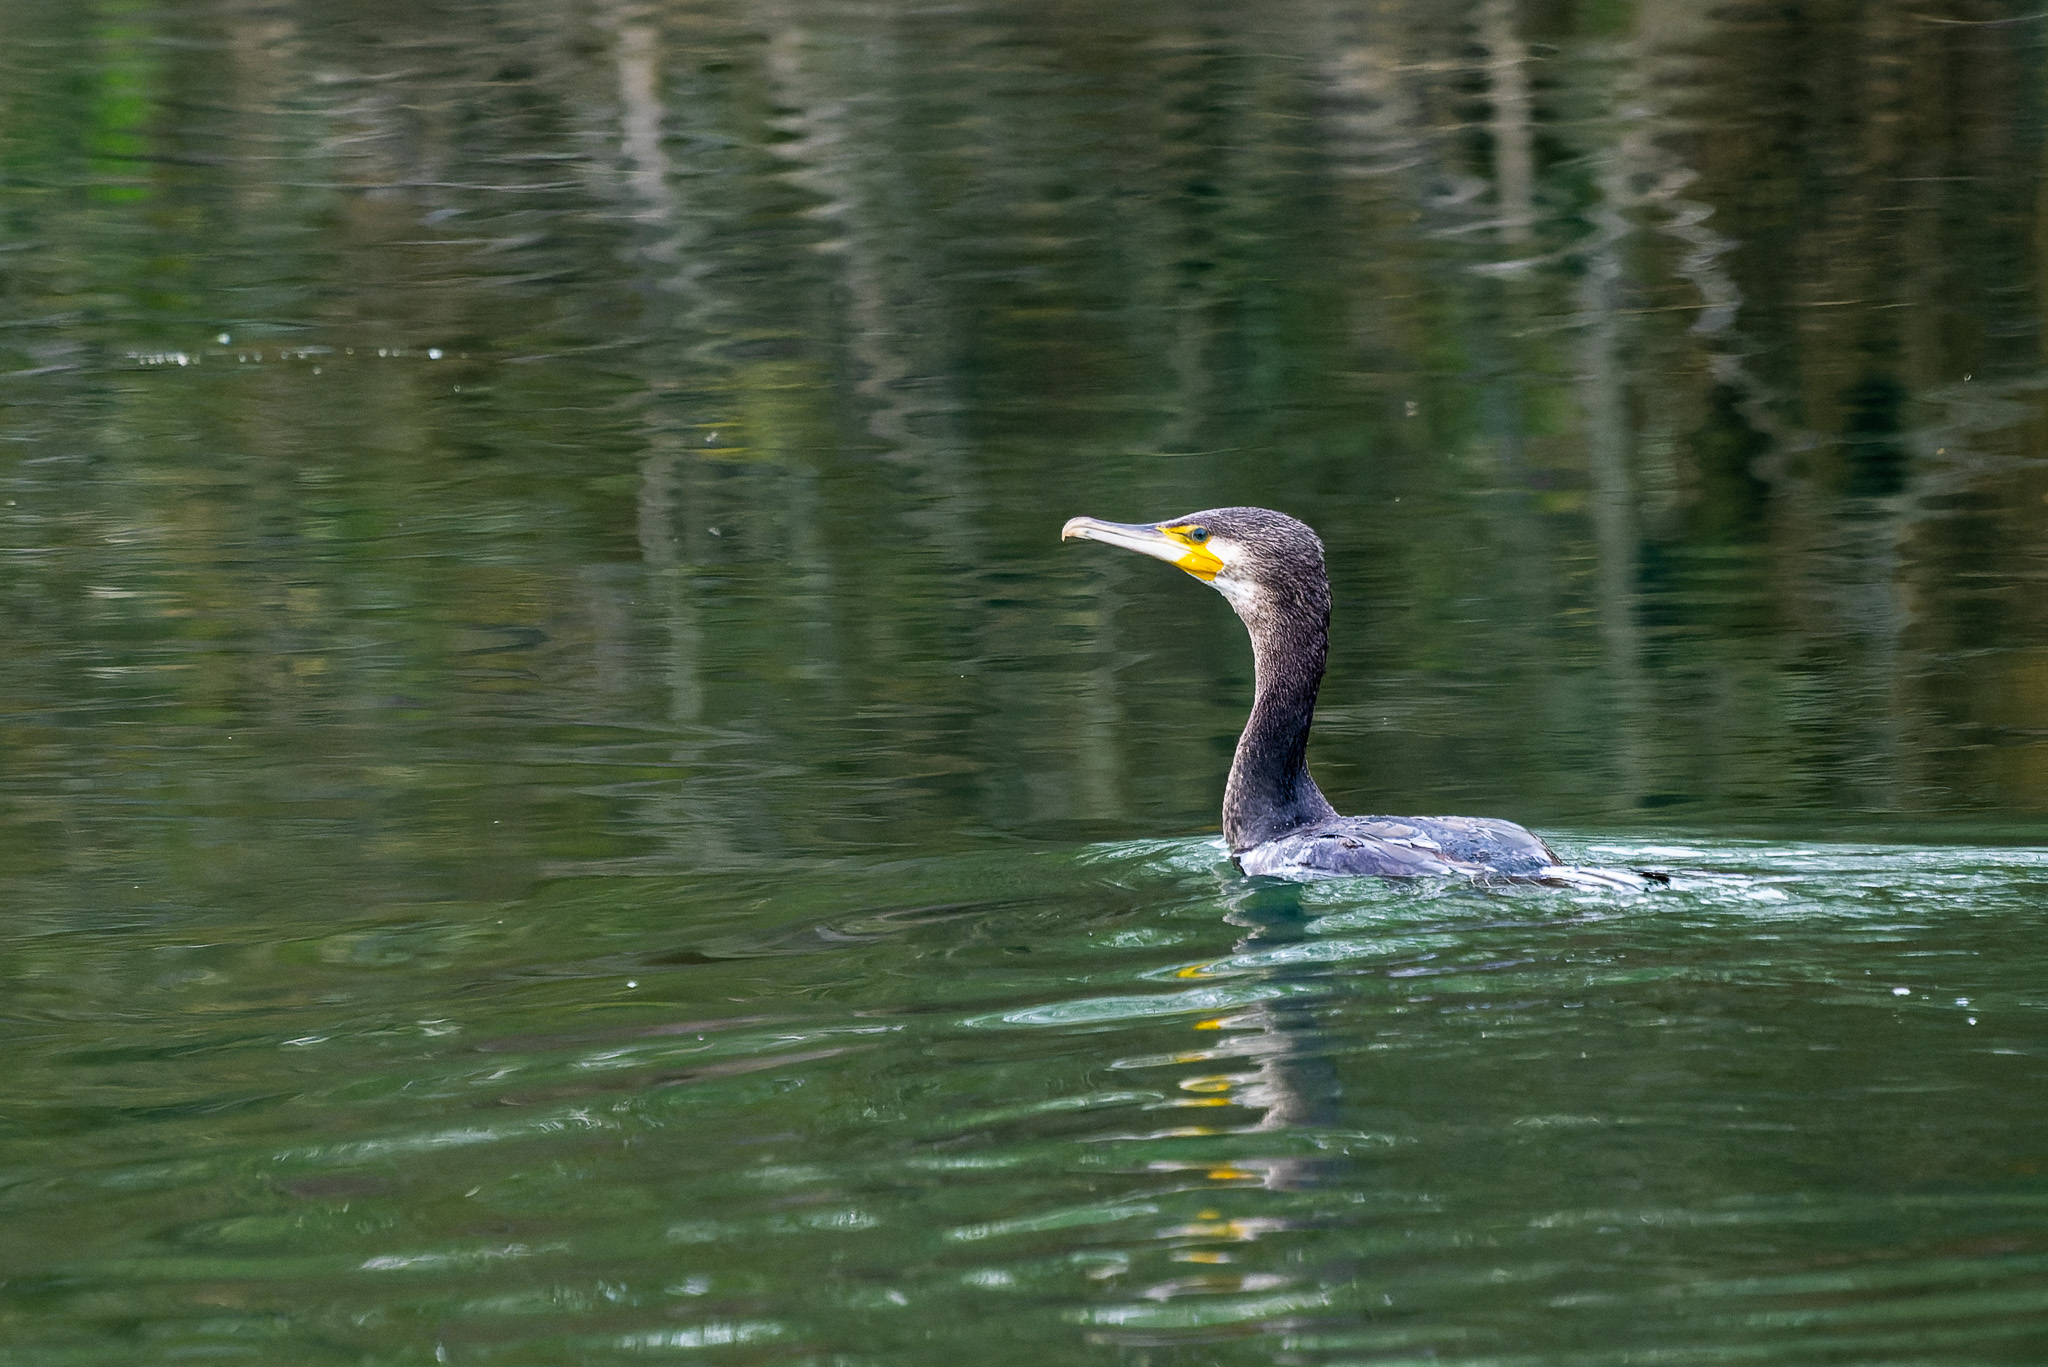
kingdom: Animalia
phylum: Chordata
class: Aves
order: Suliformes
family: Phalacrocoracidae
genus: Phalacrocorax
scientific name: Phalacrocorax carbo
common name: Great cormorant
